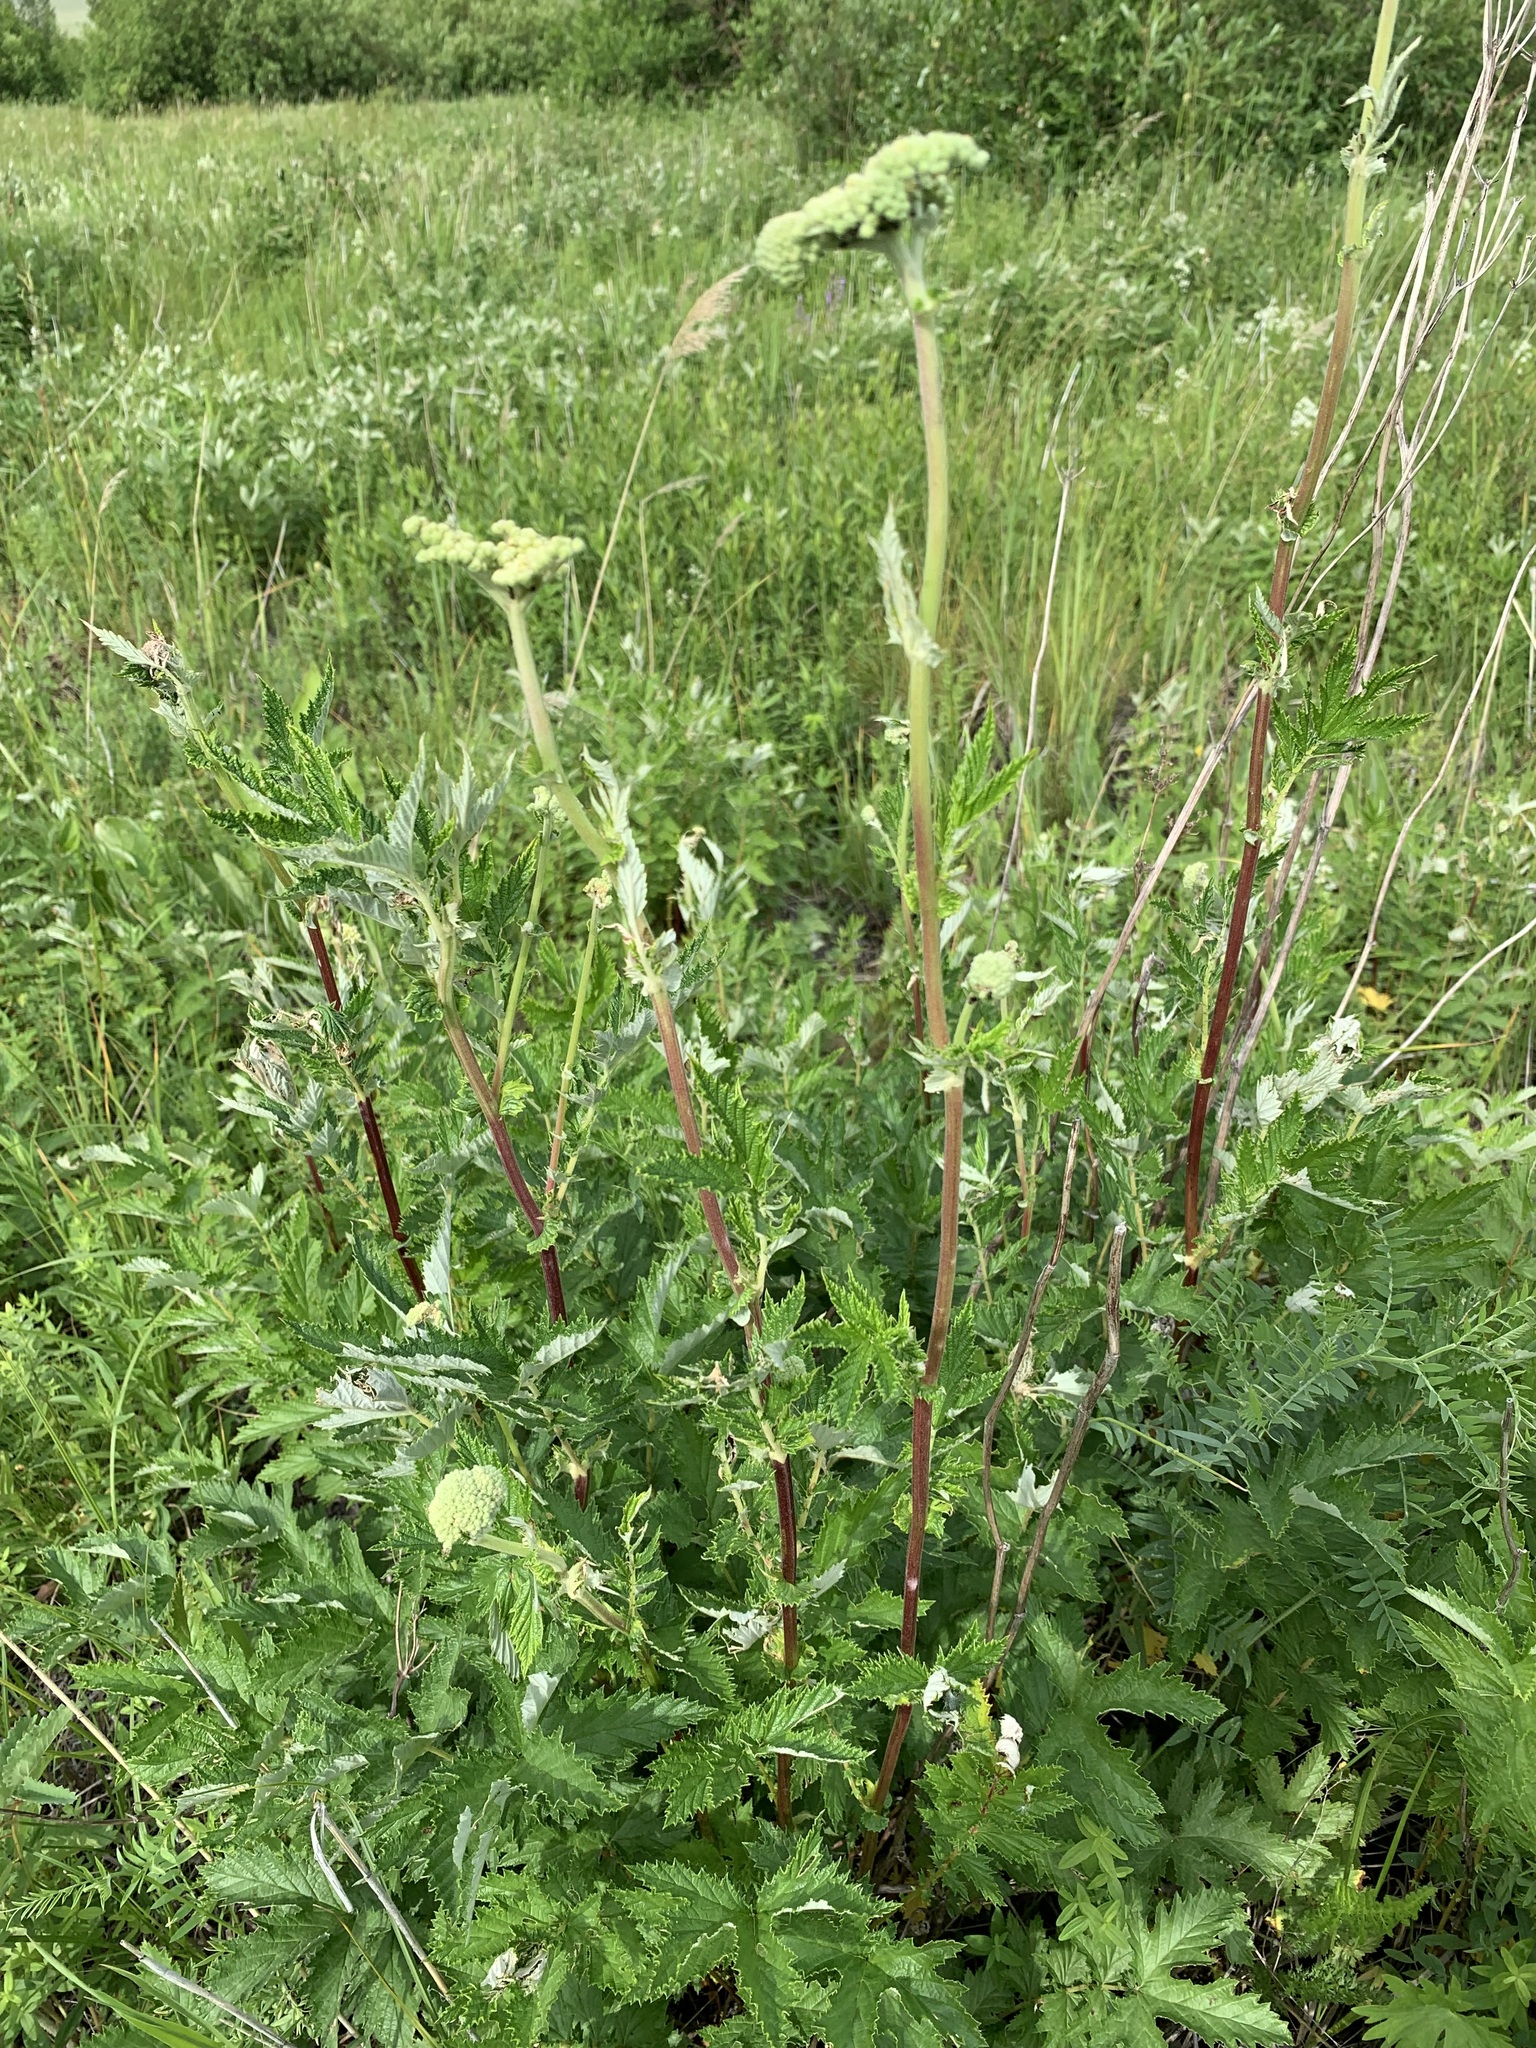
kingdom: Plantae
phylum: Tracheophyta
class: Magnoliopsida
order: Rosales
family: Rosaceae
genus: Filipendula
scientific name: Filipendula ulmaria
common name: Meadowsweet
